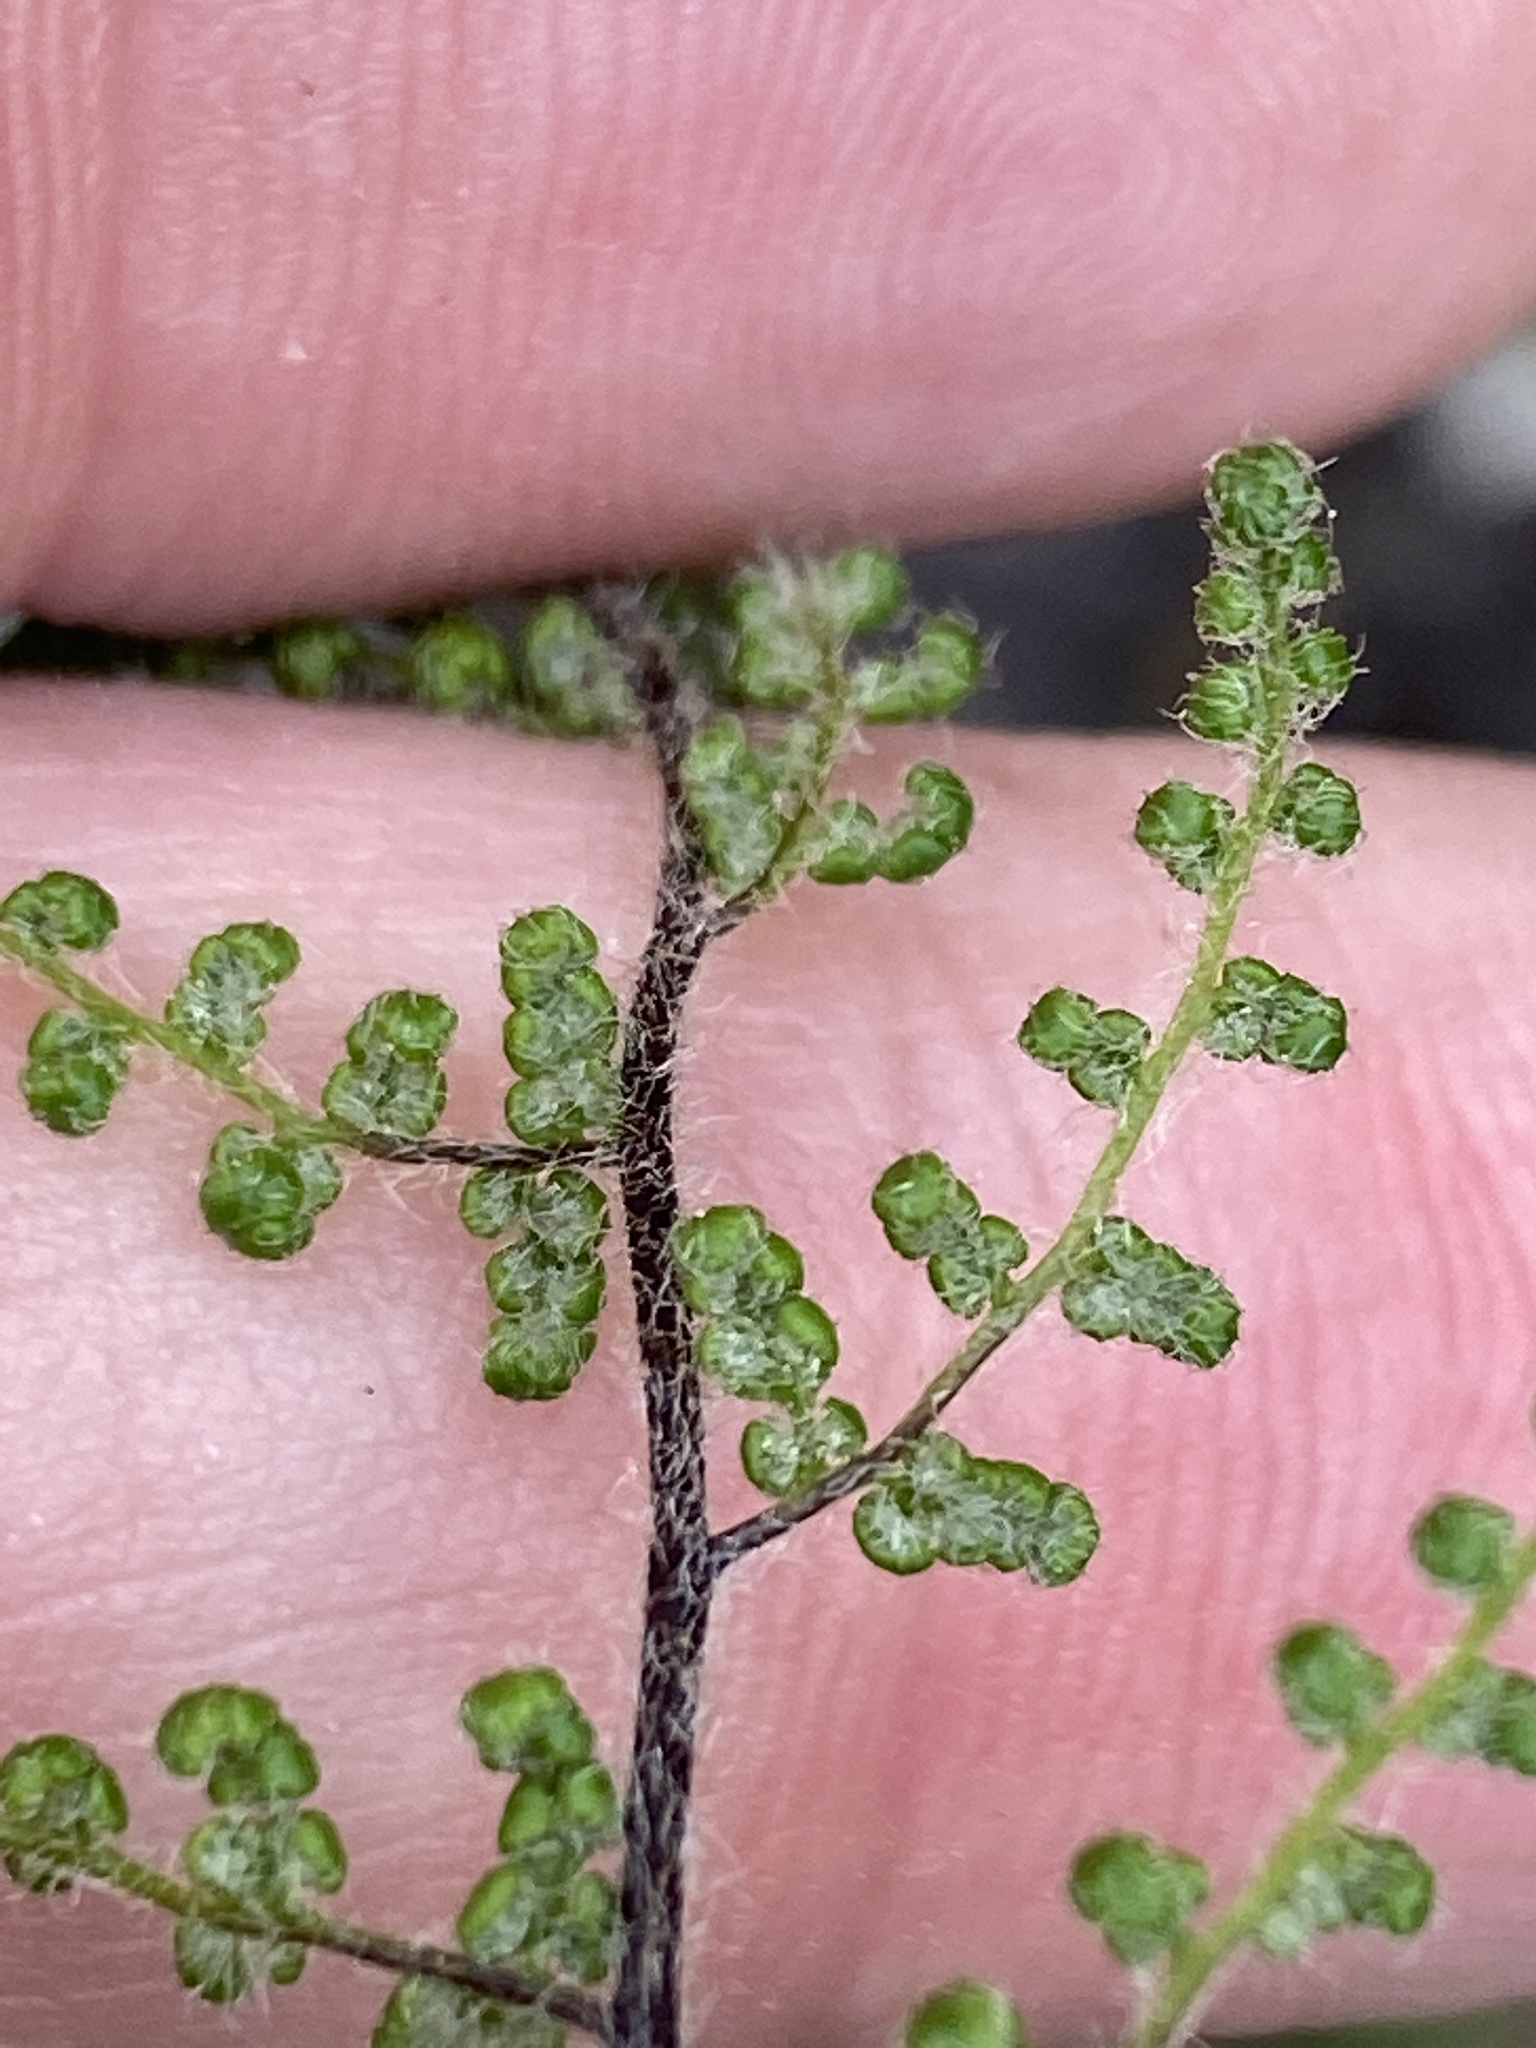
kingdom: Plantae
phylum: Tracheophyta
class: Polypodiopsida
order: Polypodiales
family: Pteridaceae
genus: Myriopteris
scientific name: Myriopteris lanosa
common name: Hairy lip fern
